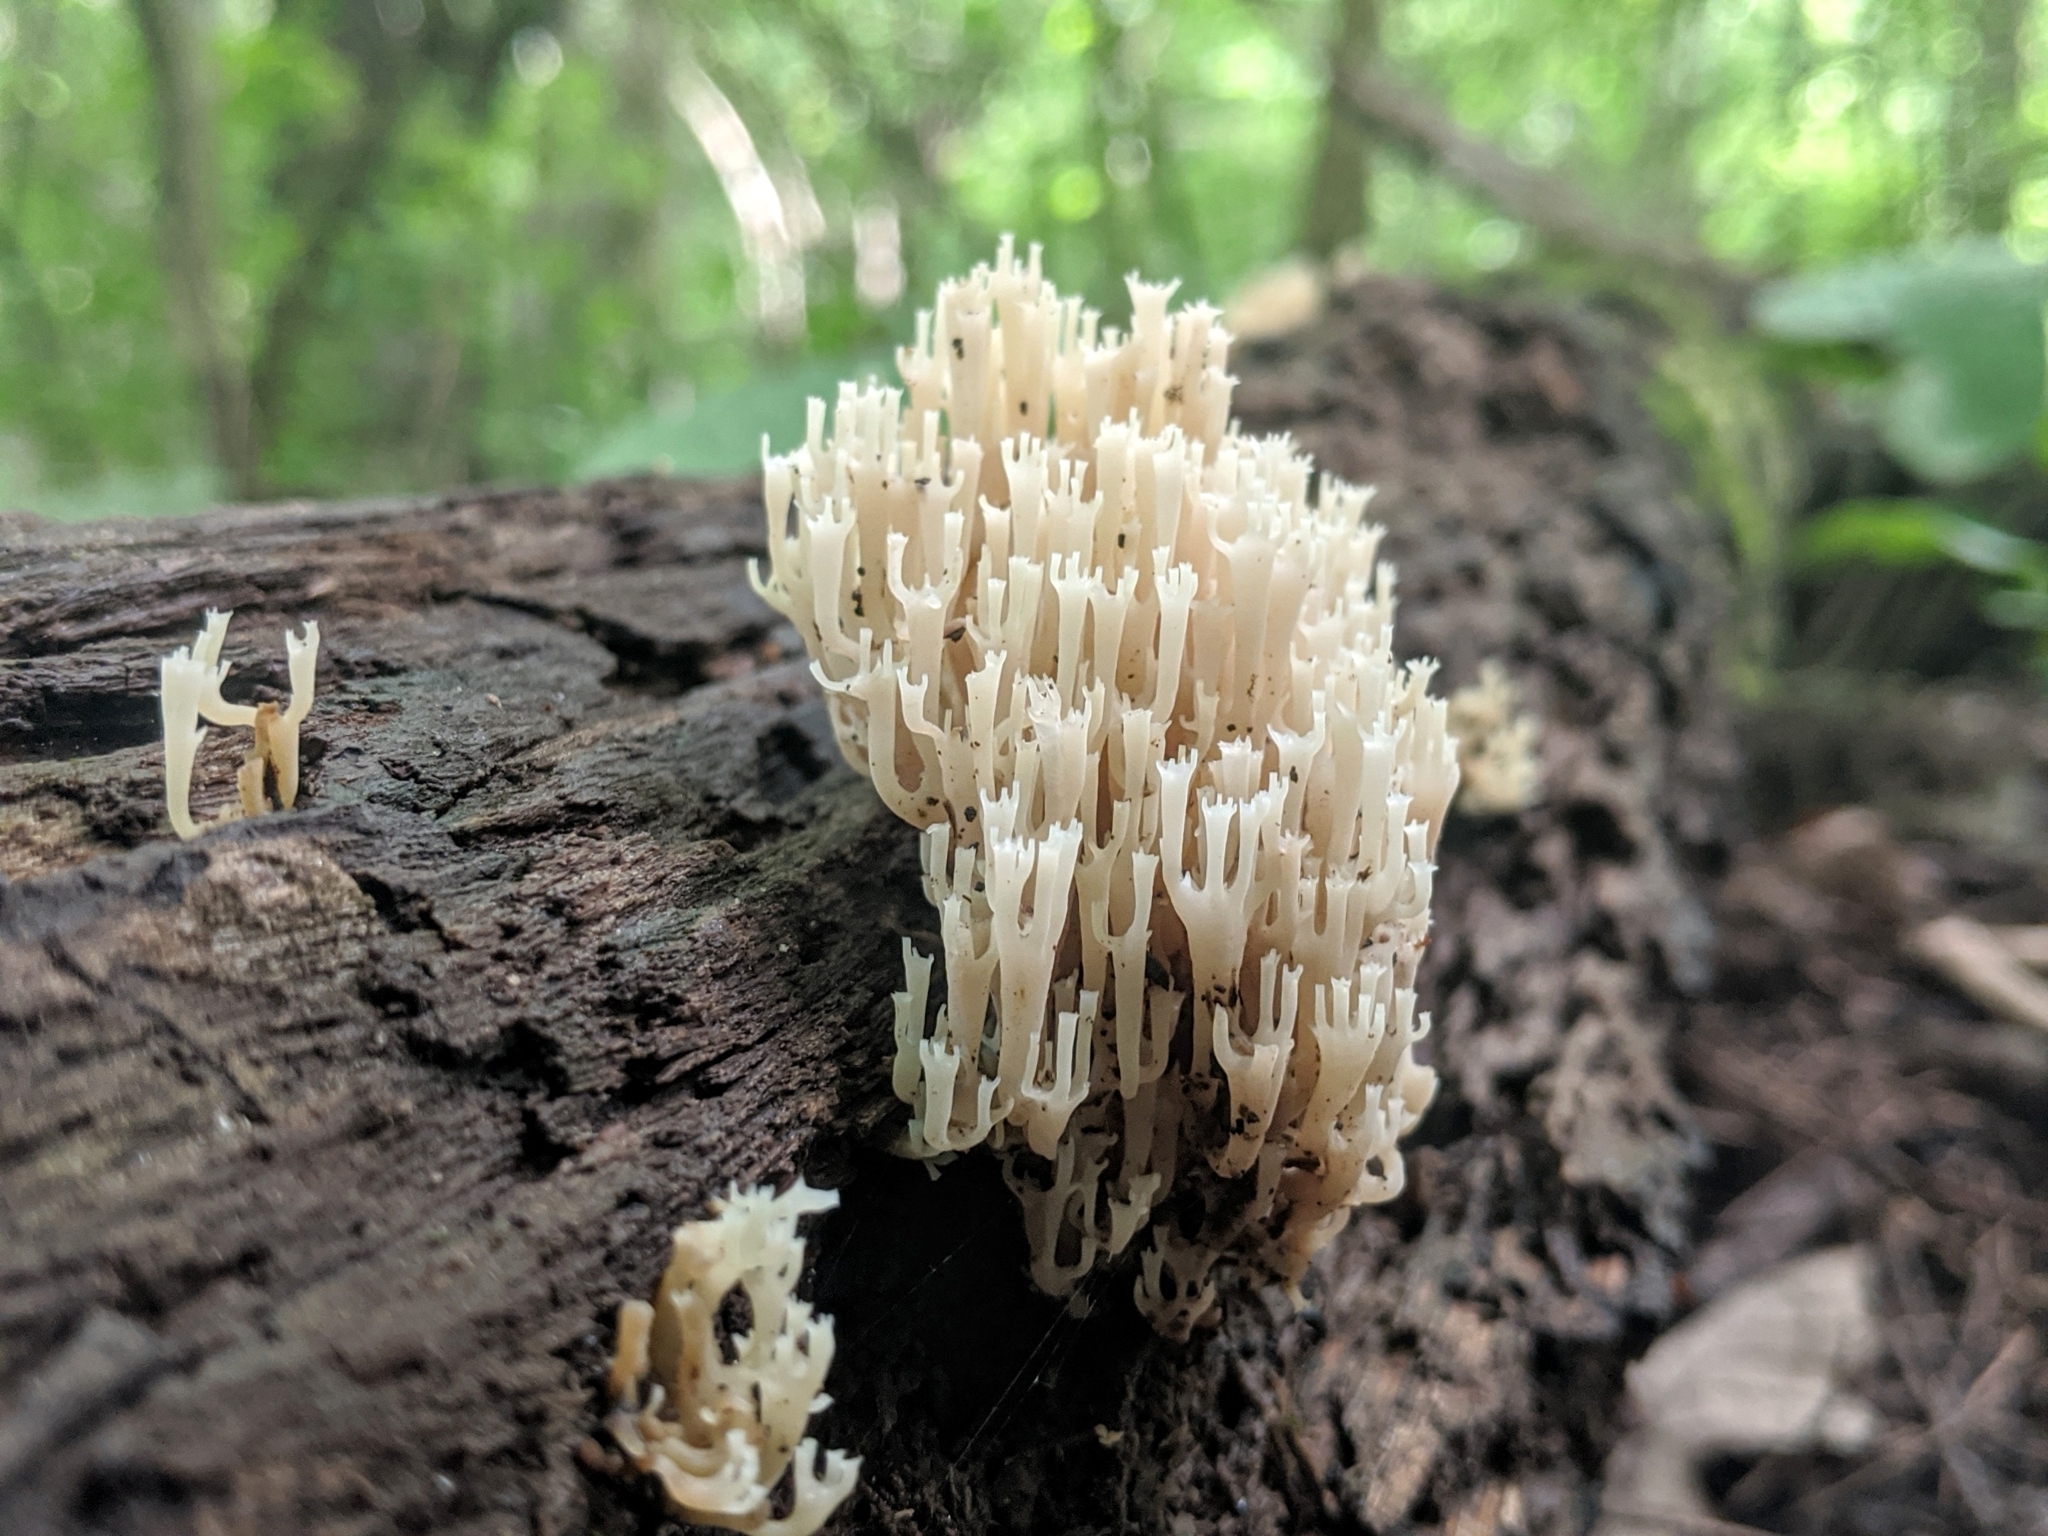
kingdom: Fungi
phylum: Basidiomycota
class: Agaricomycetes
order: Russulales
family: Auriscalpiaceae
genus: Artomyces
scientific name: Artomyces pyxidatus
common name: Crown-tipped coral fungus
